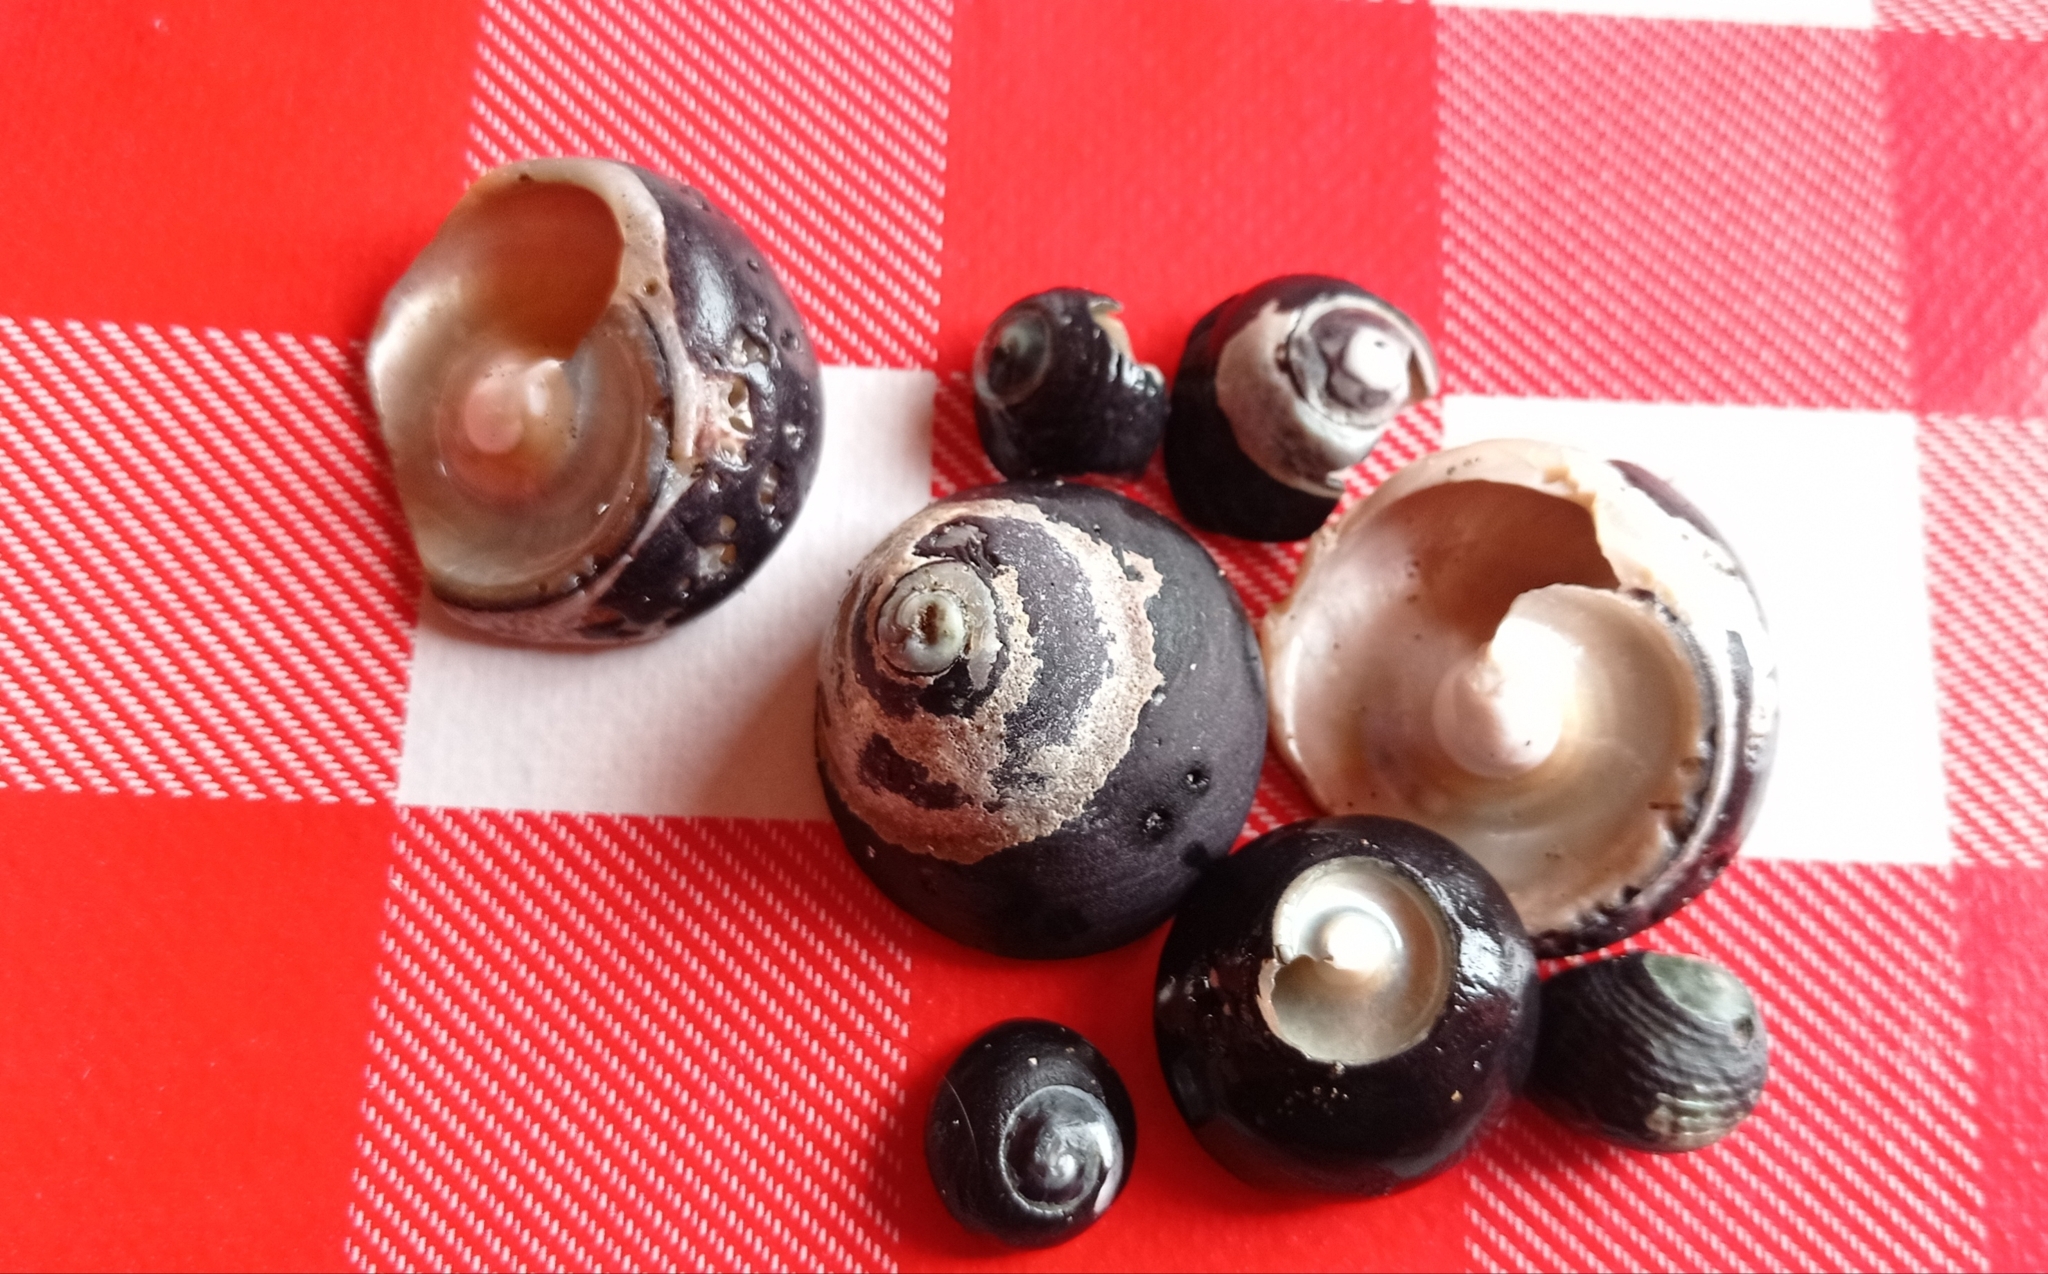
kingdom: Animalia
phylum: Mollusca
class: Gastropoda
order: Trochida
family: Tegulidae
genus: Tegula
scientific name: Tegula atra
